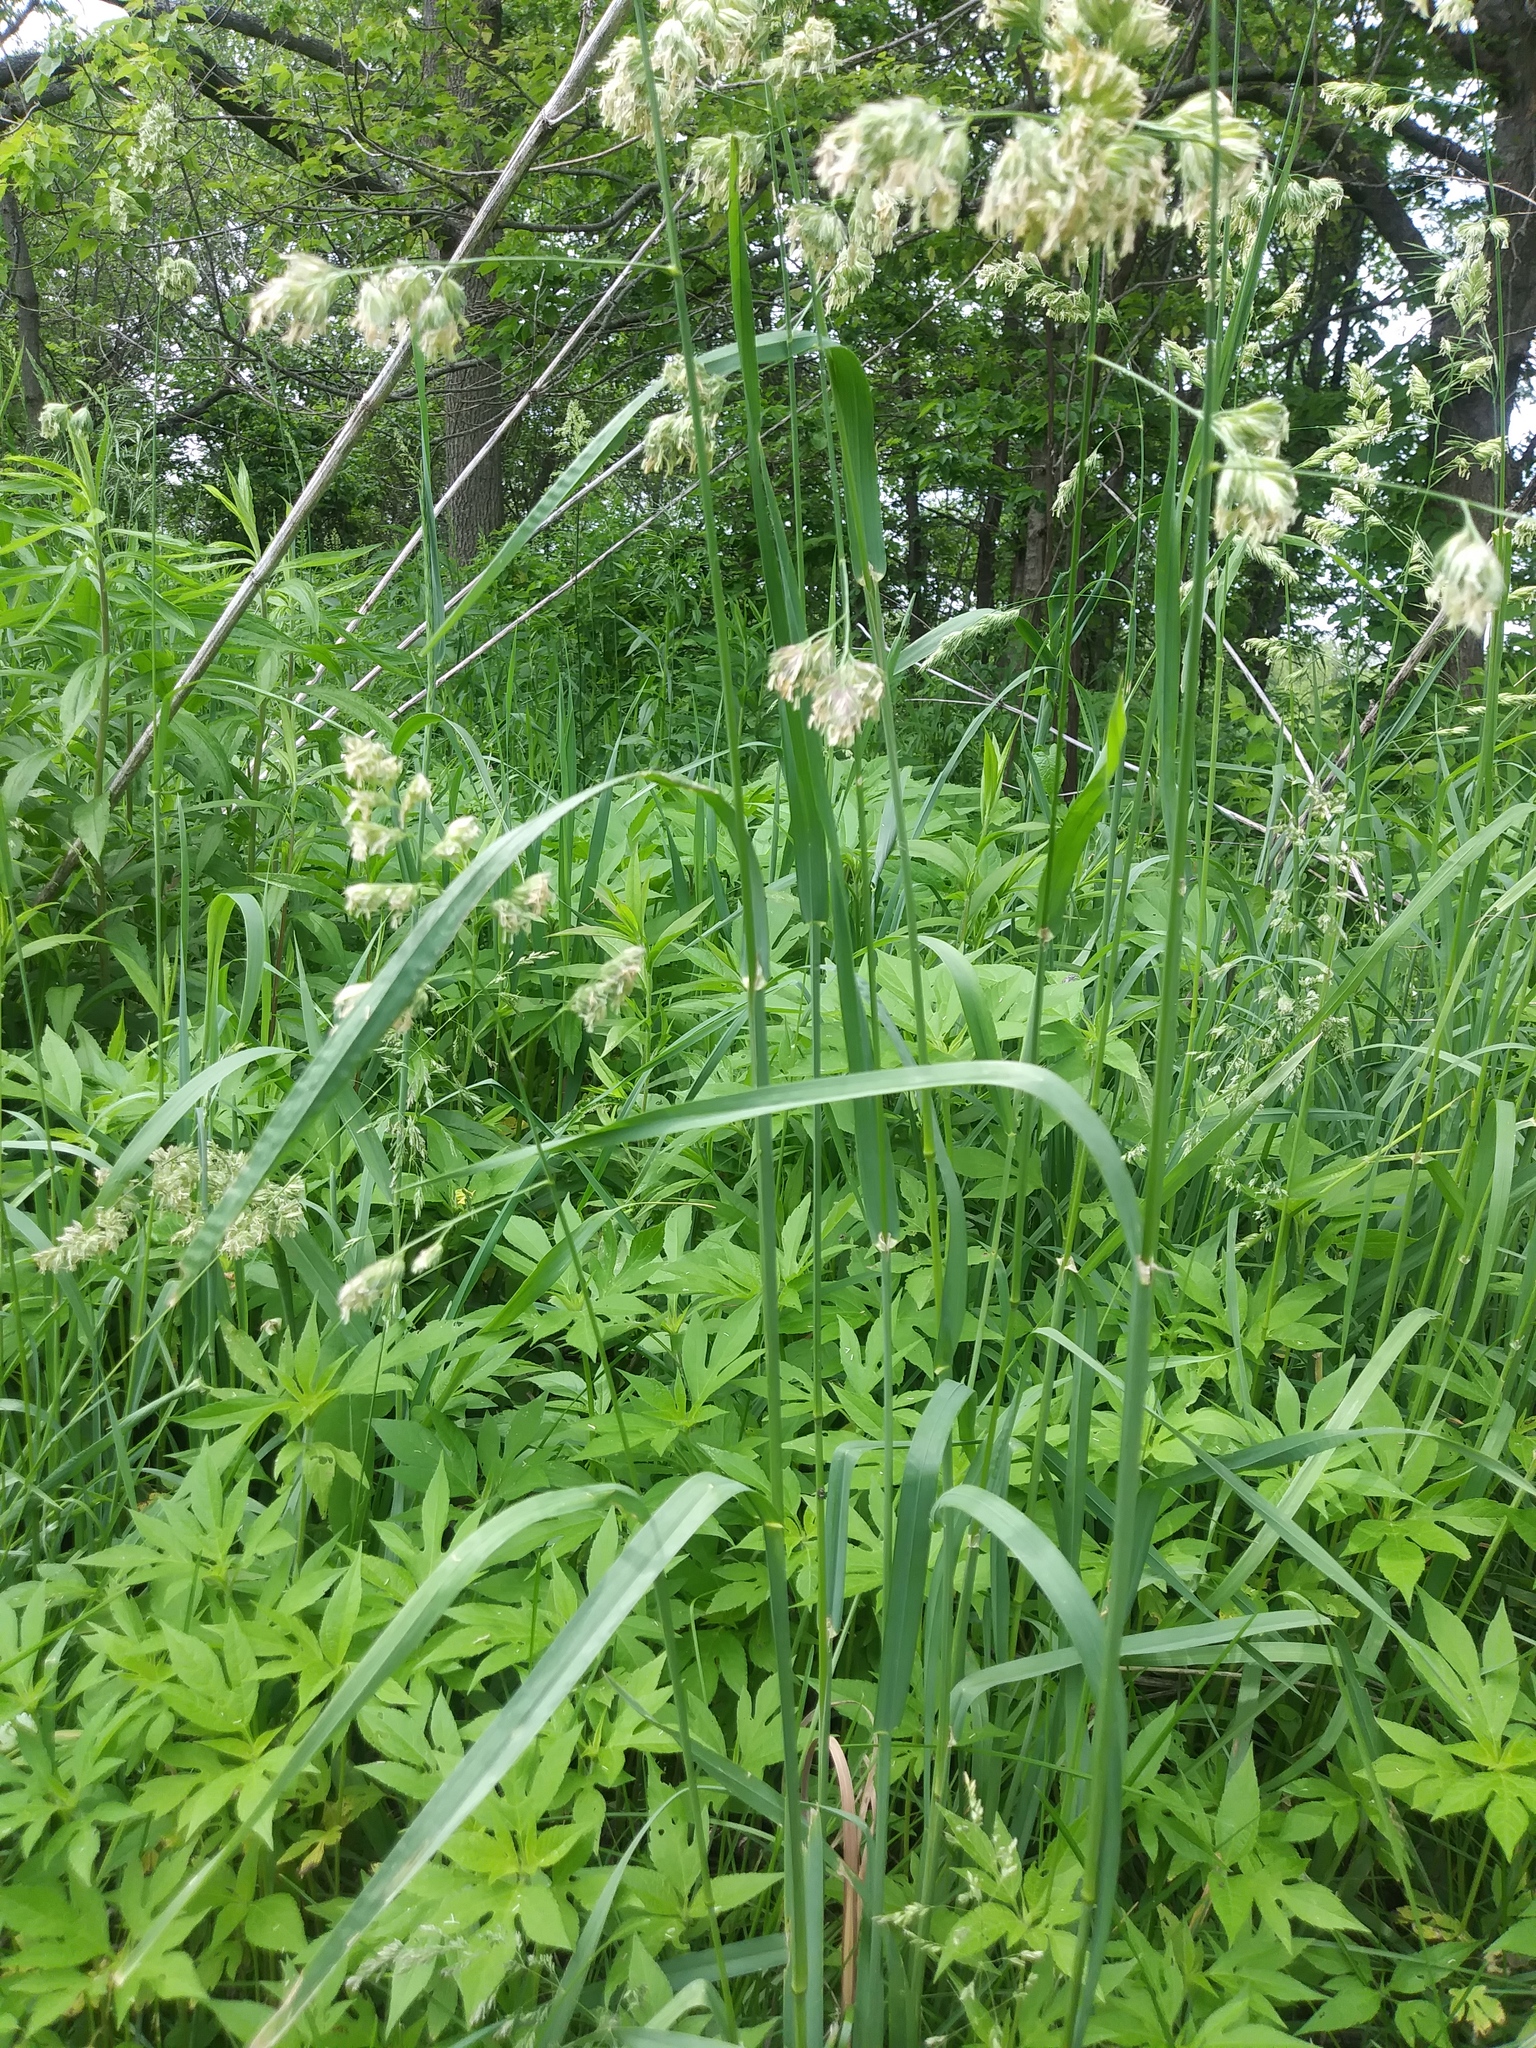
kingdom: Plantae
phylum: Tracheophyta
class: Liliopsida
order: Poales
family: Poaceae
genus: Dactylis
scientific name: Dactylis glomerata
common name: Orchardgrass
